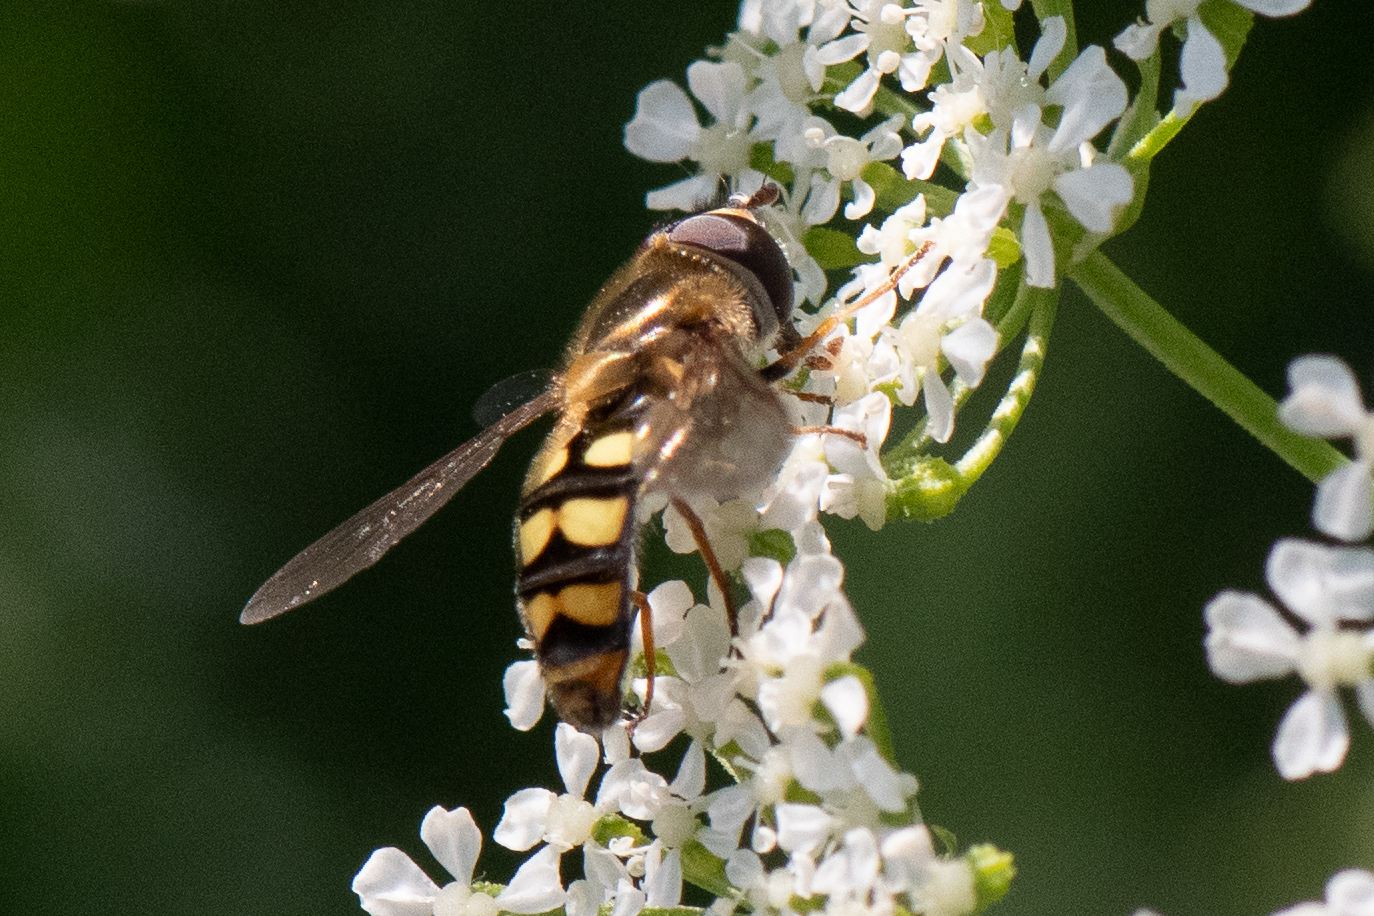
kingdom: Animalia
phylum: Arthropoda
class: Insecta
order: Diptera
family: Syrphidae
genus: Eupeodes
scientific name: Eupeodes fumipennis
